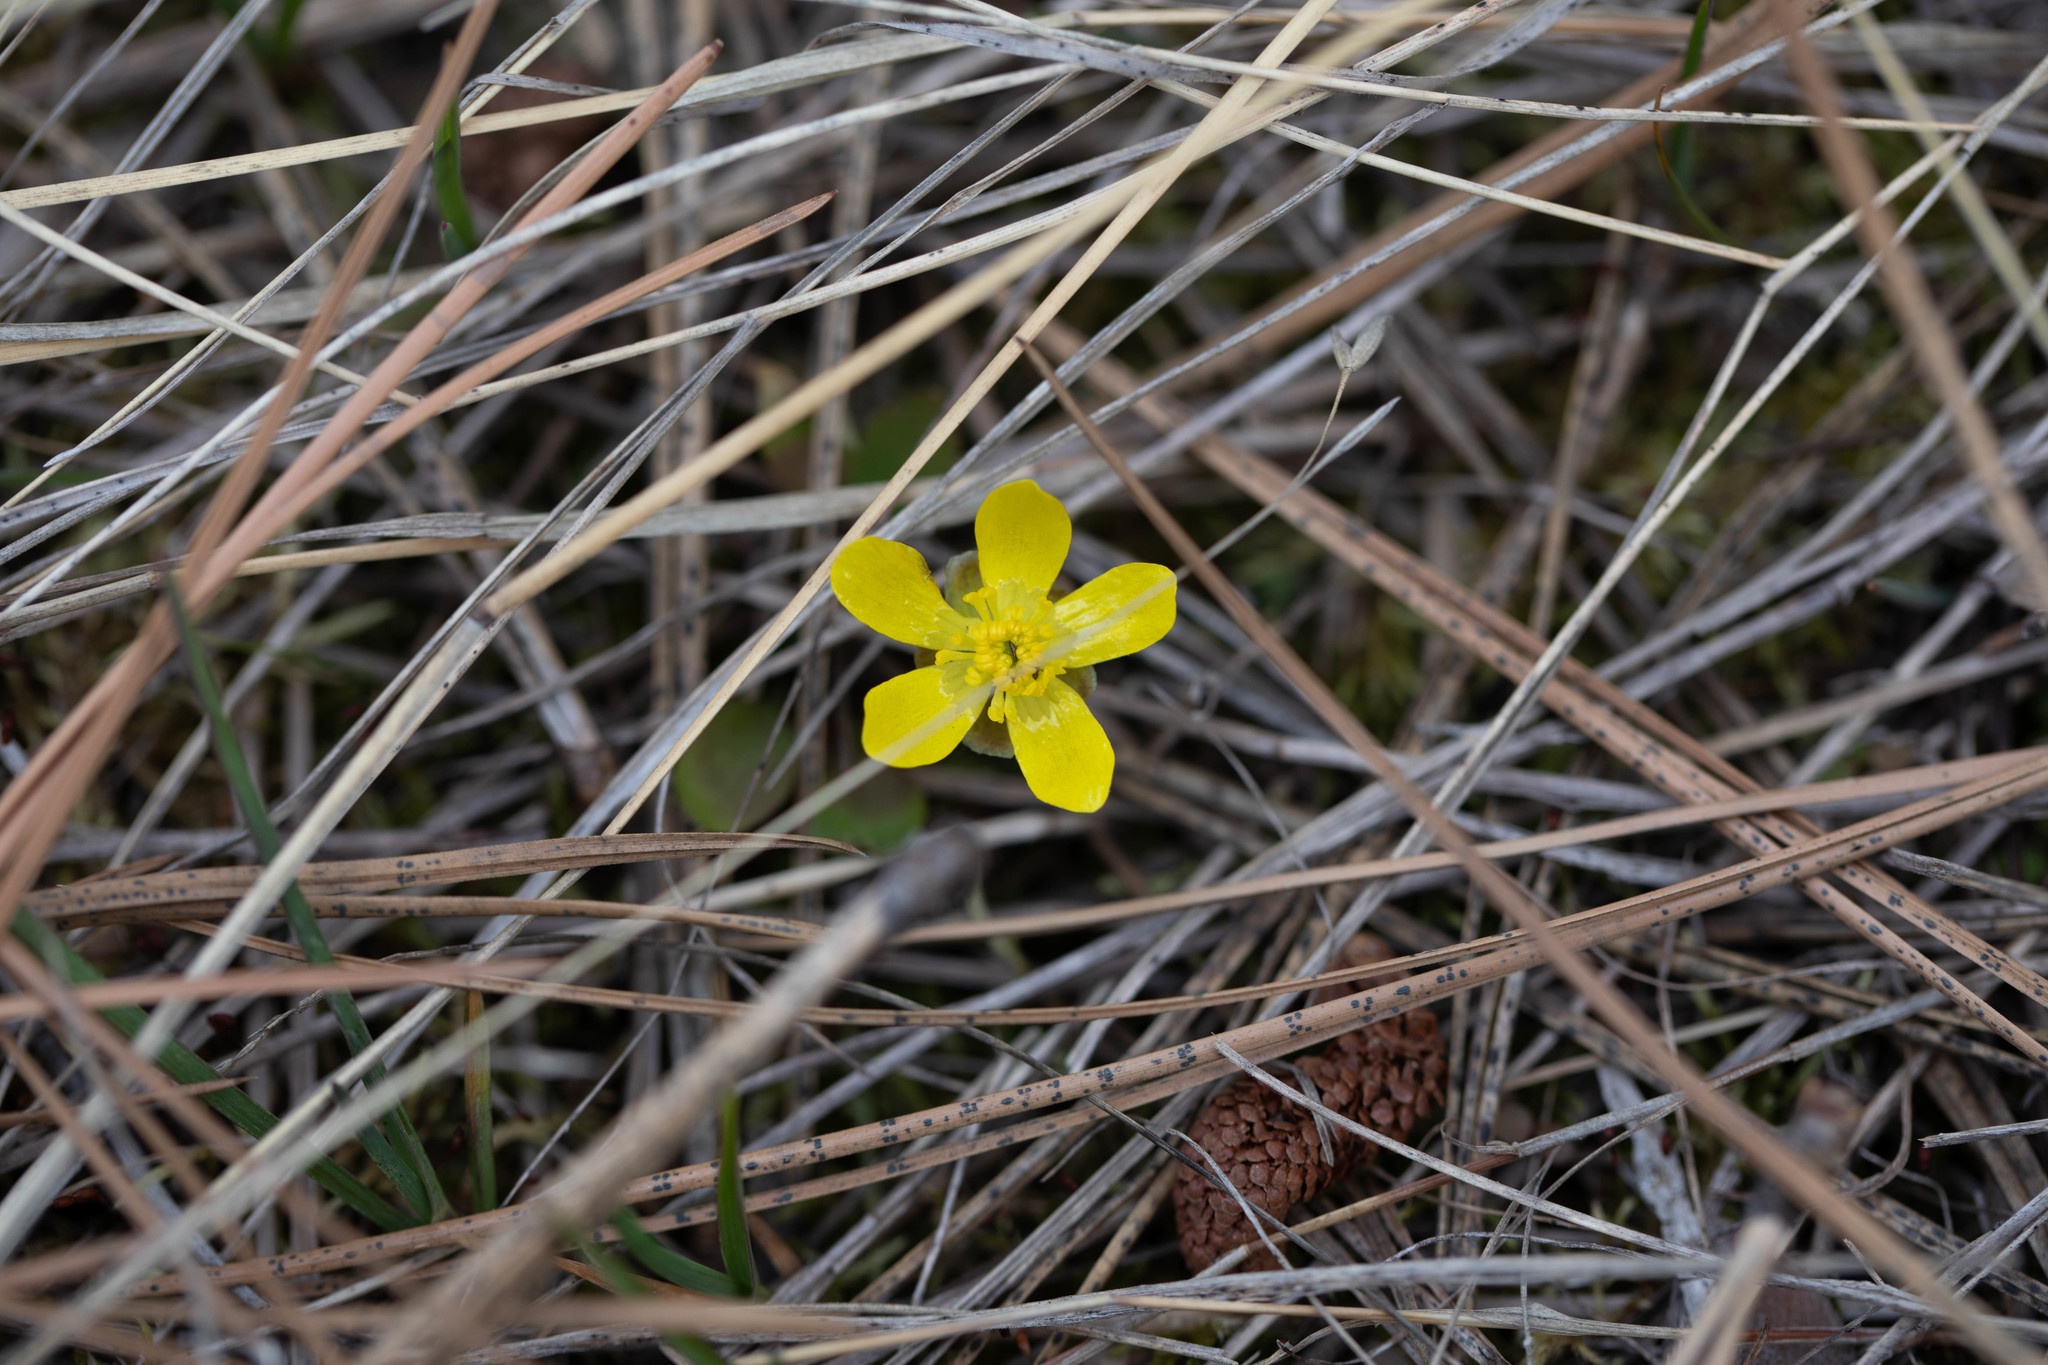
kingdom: Plantae
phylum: Tracheophyta
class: Magnoliopsida
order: Ranunculales
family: Ranunculaceae
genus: Ranunculus
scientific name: Ranunculus glaberrimus
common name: Sagebrush buttercup
